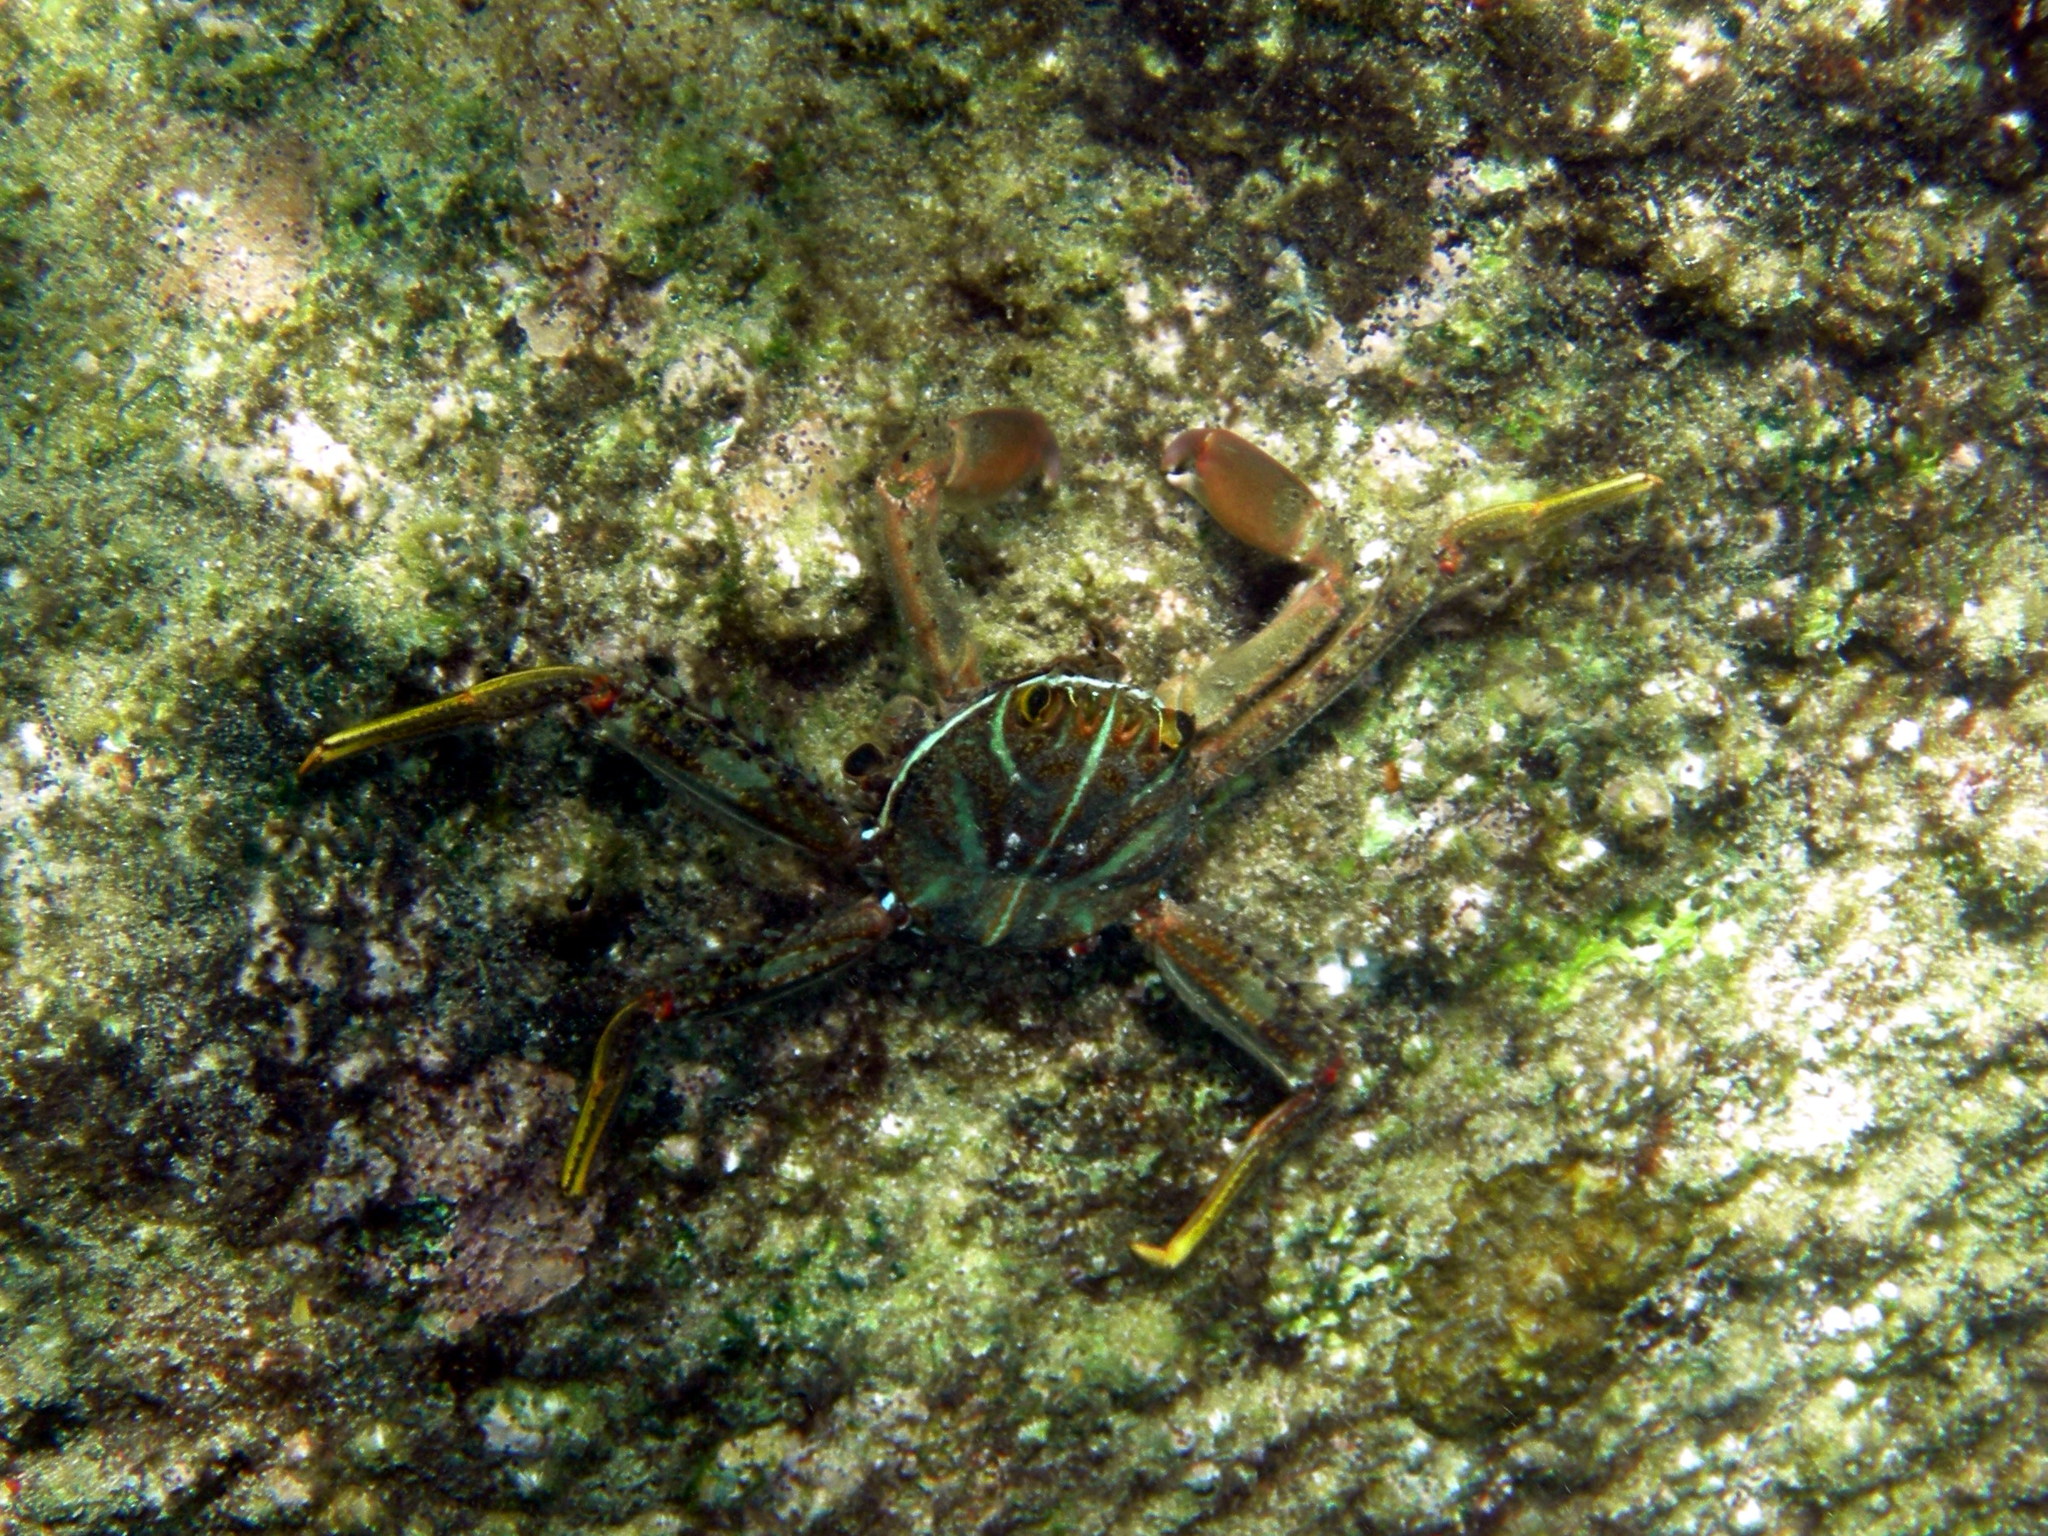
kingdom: Animalia
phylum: Arthropoda
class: Malacostraca
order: Decapoda
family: Percnidae
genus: Percnon
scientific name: Percnon planissimum
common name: Flat rock crab
